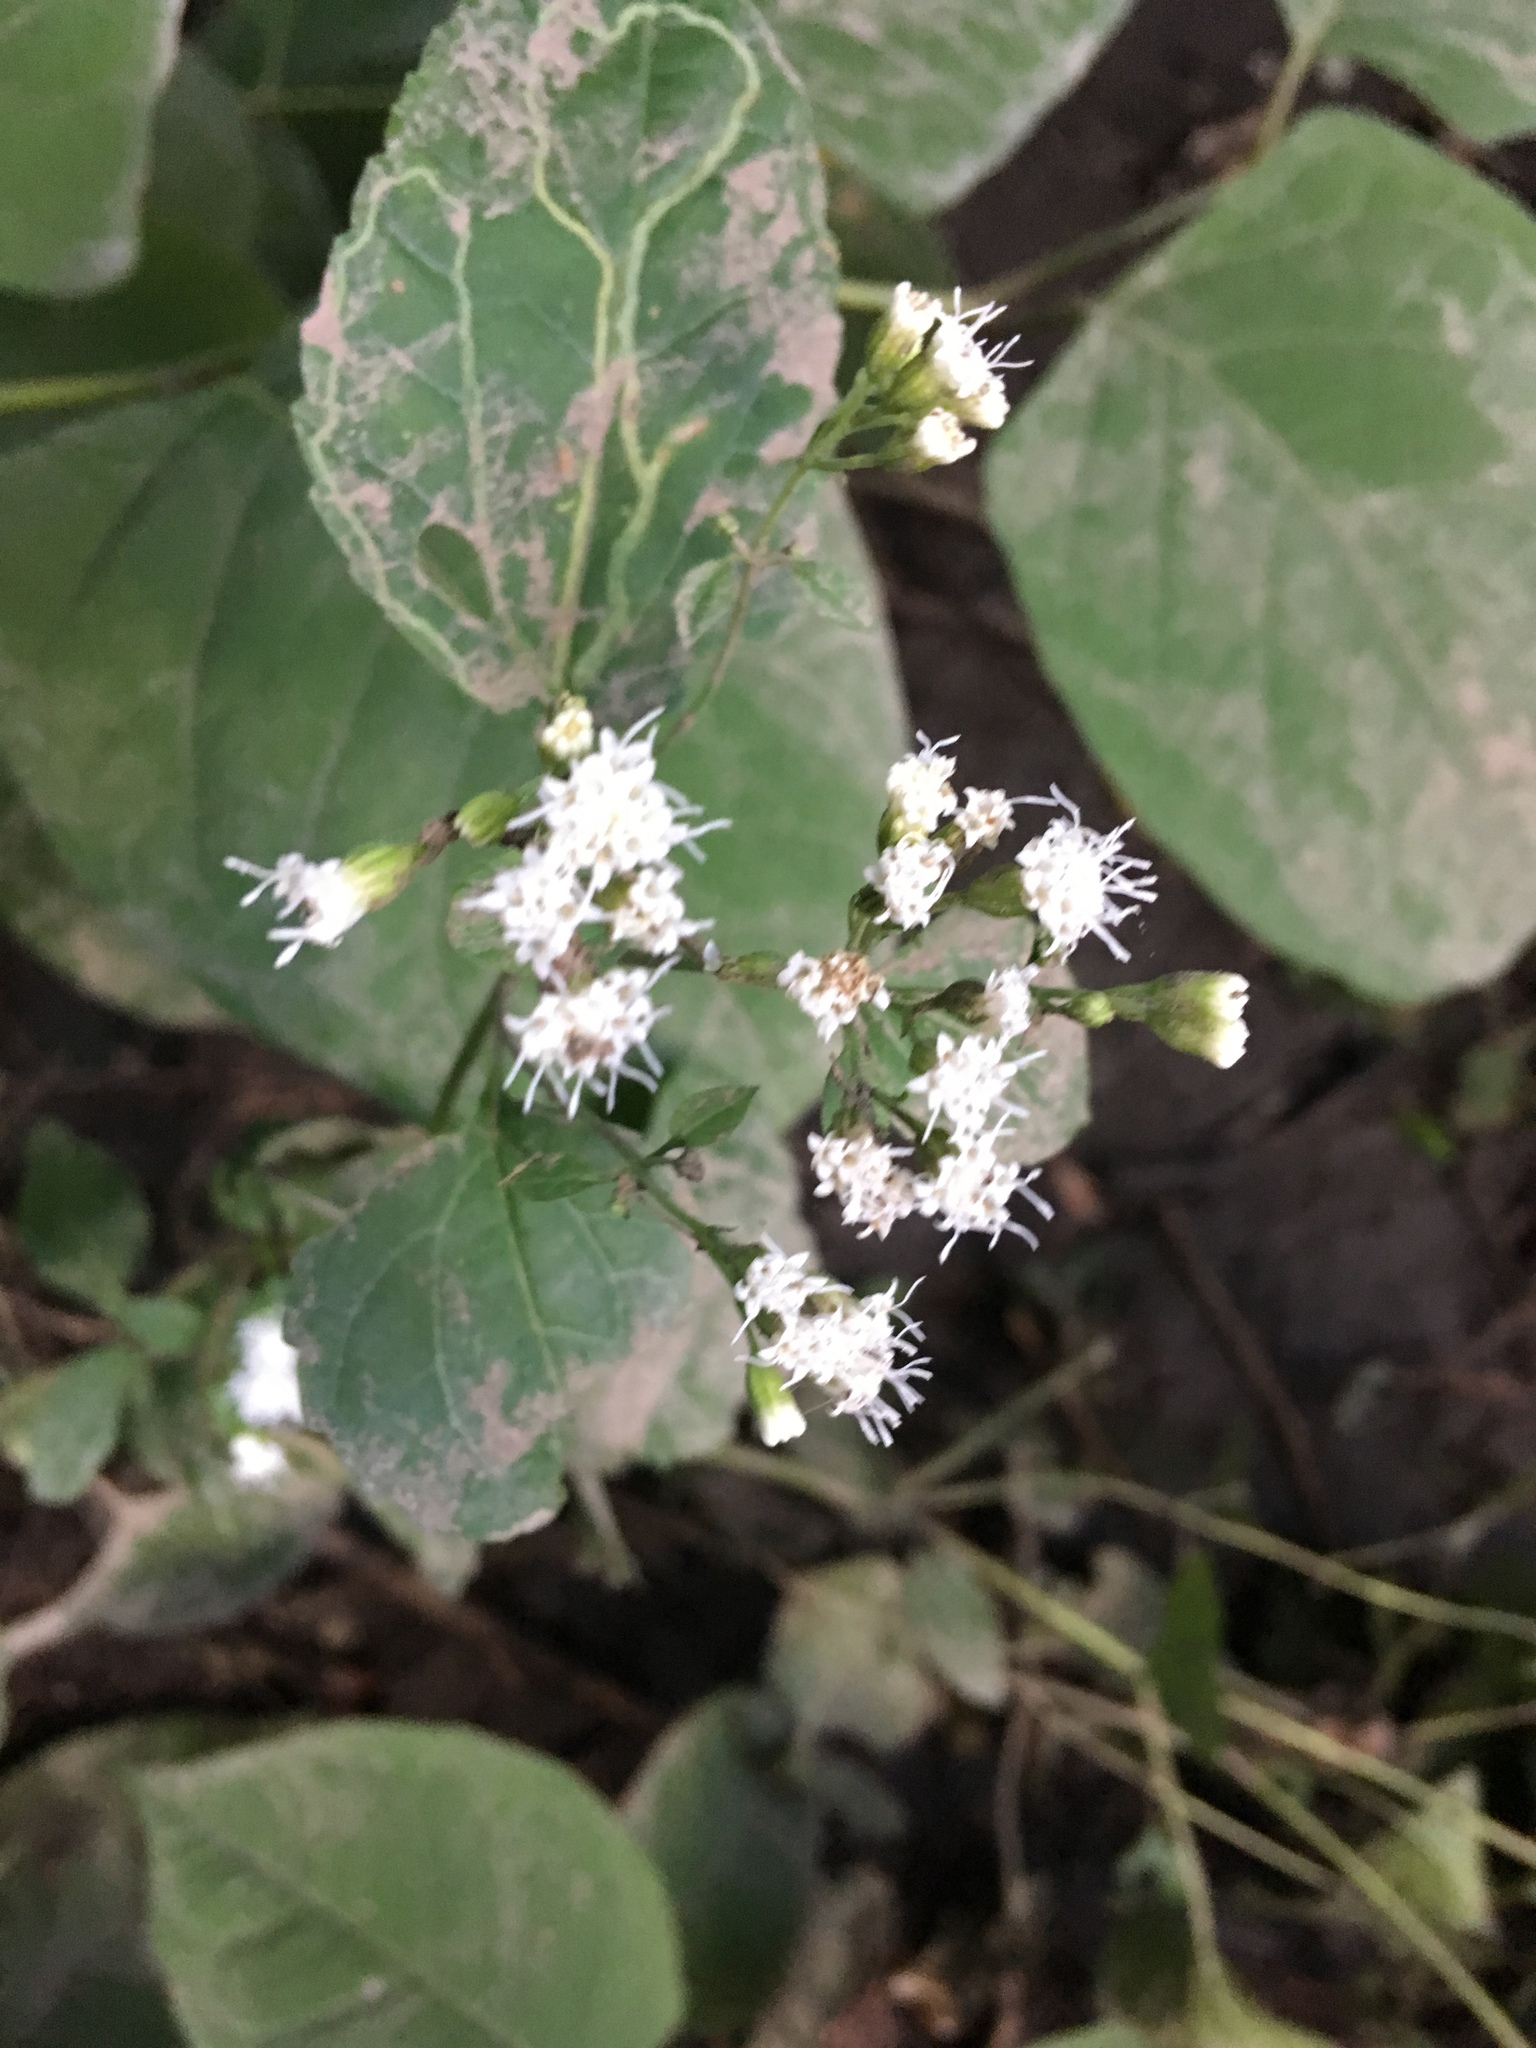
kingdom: Plantae
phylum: Tracheophyta
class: Magnoliopsida
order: Asterales
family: Asteraceae
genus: Ageratina
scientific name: Ageratina altissima
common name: White snakeroot
